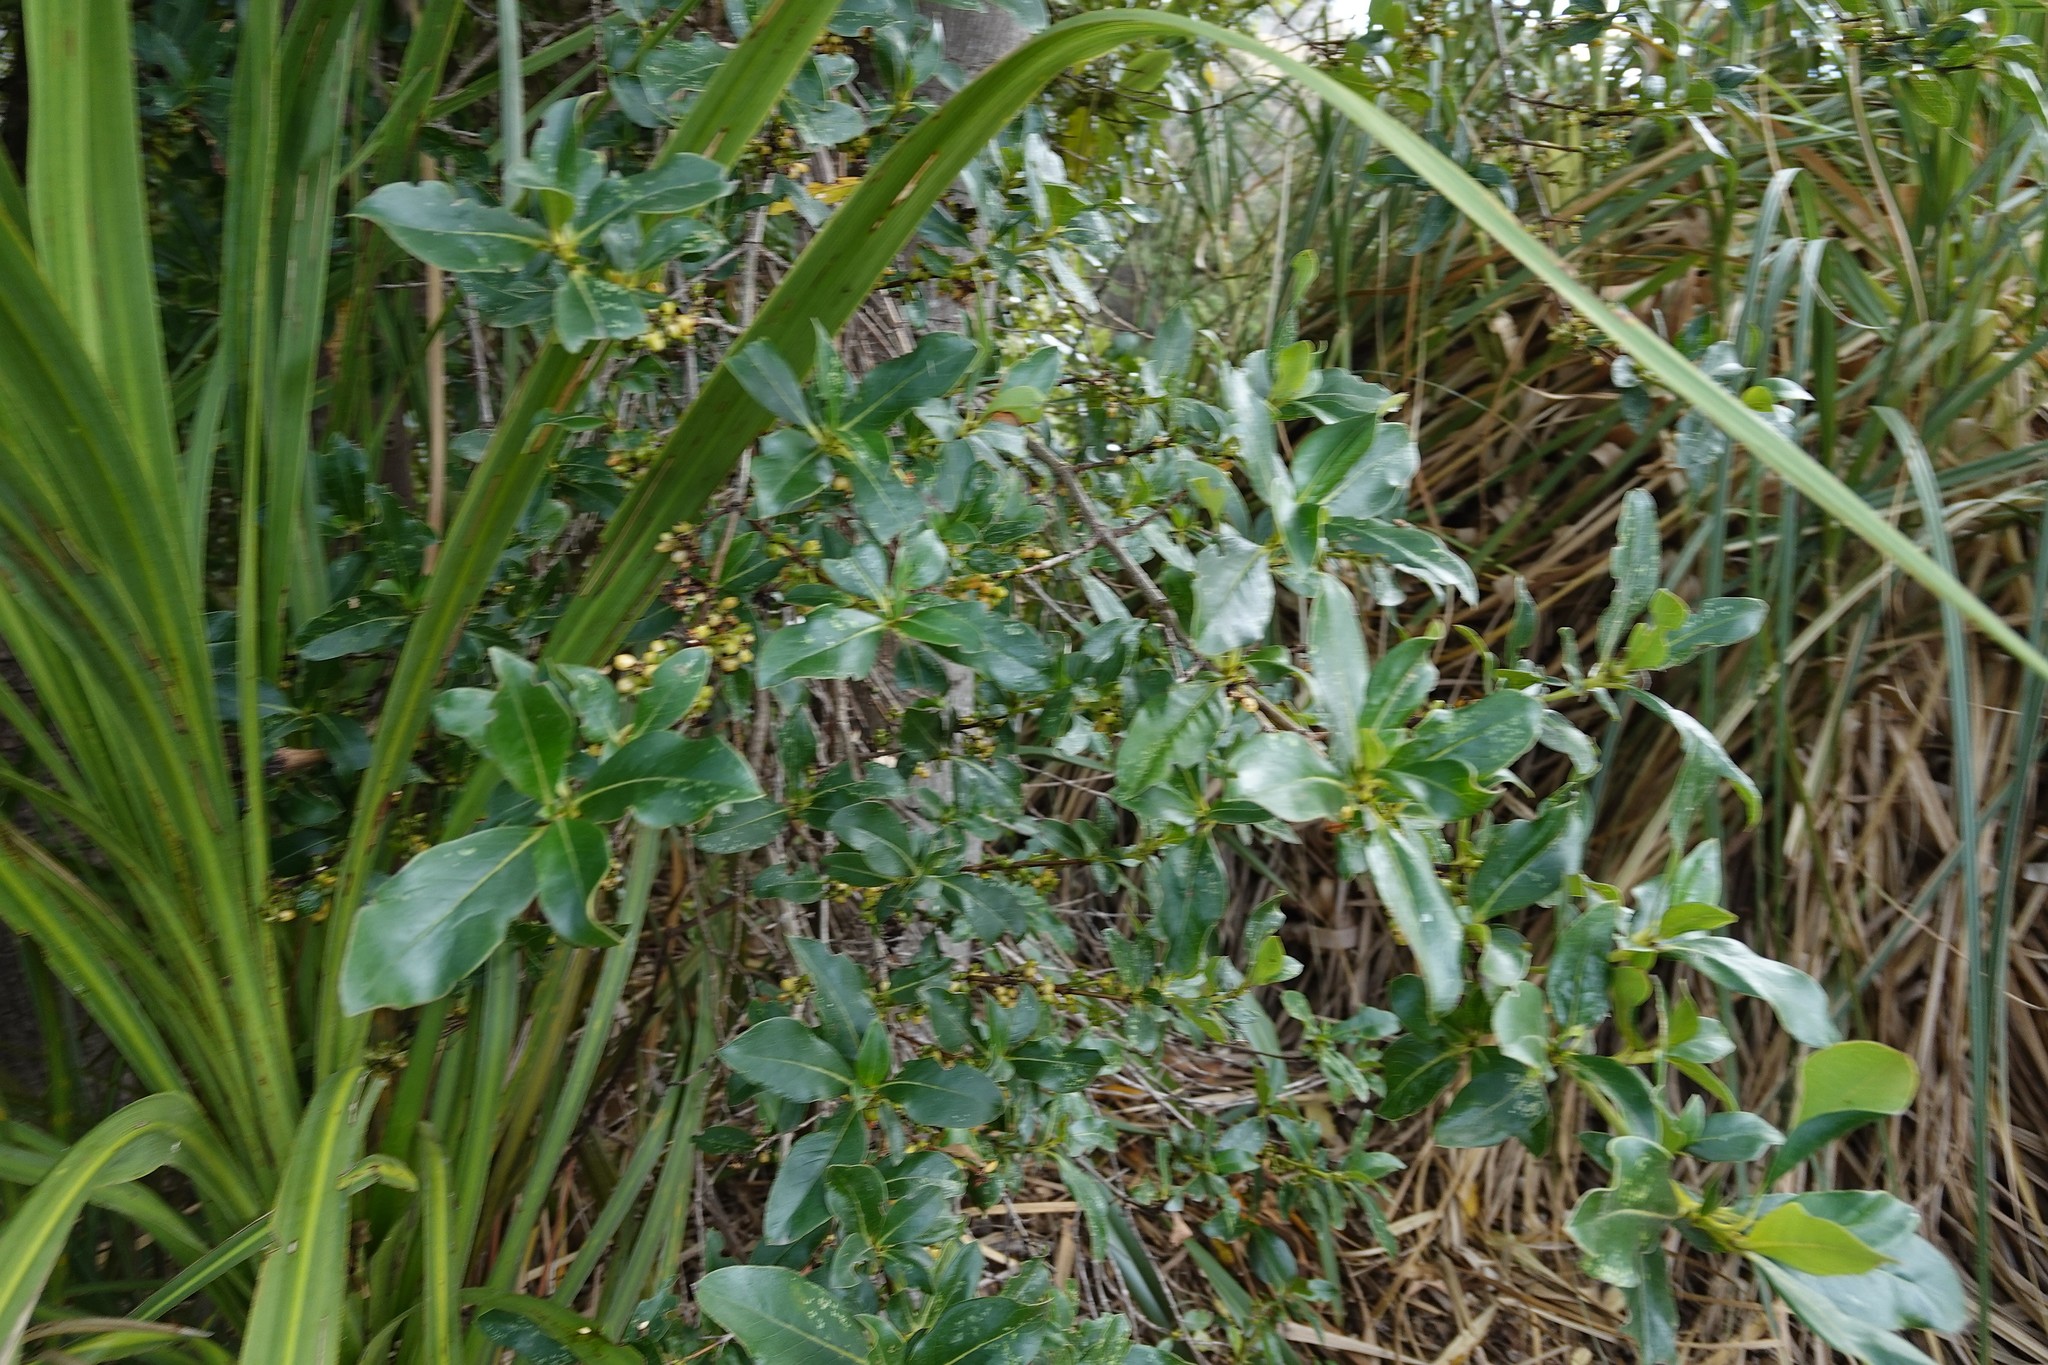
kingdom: Plantae
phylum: Tracheophyta
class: Magnoliopsida
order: Gentianales
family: Rubiaceae
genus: Coprosma
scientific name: Coprosma robusta
